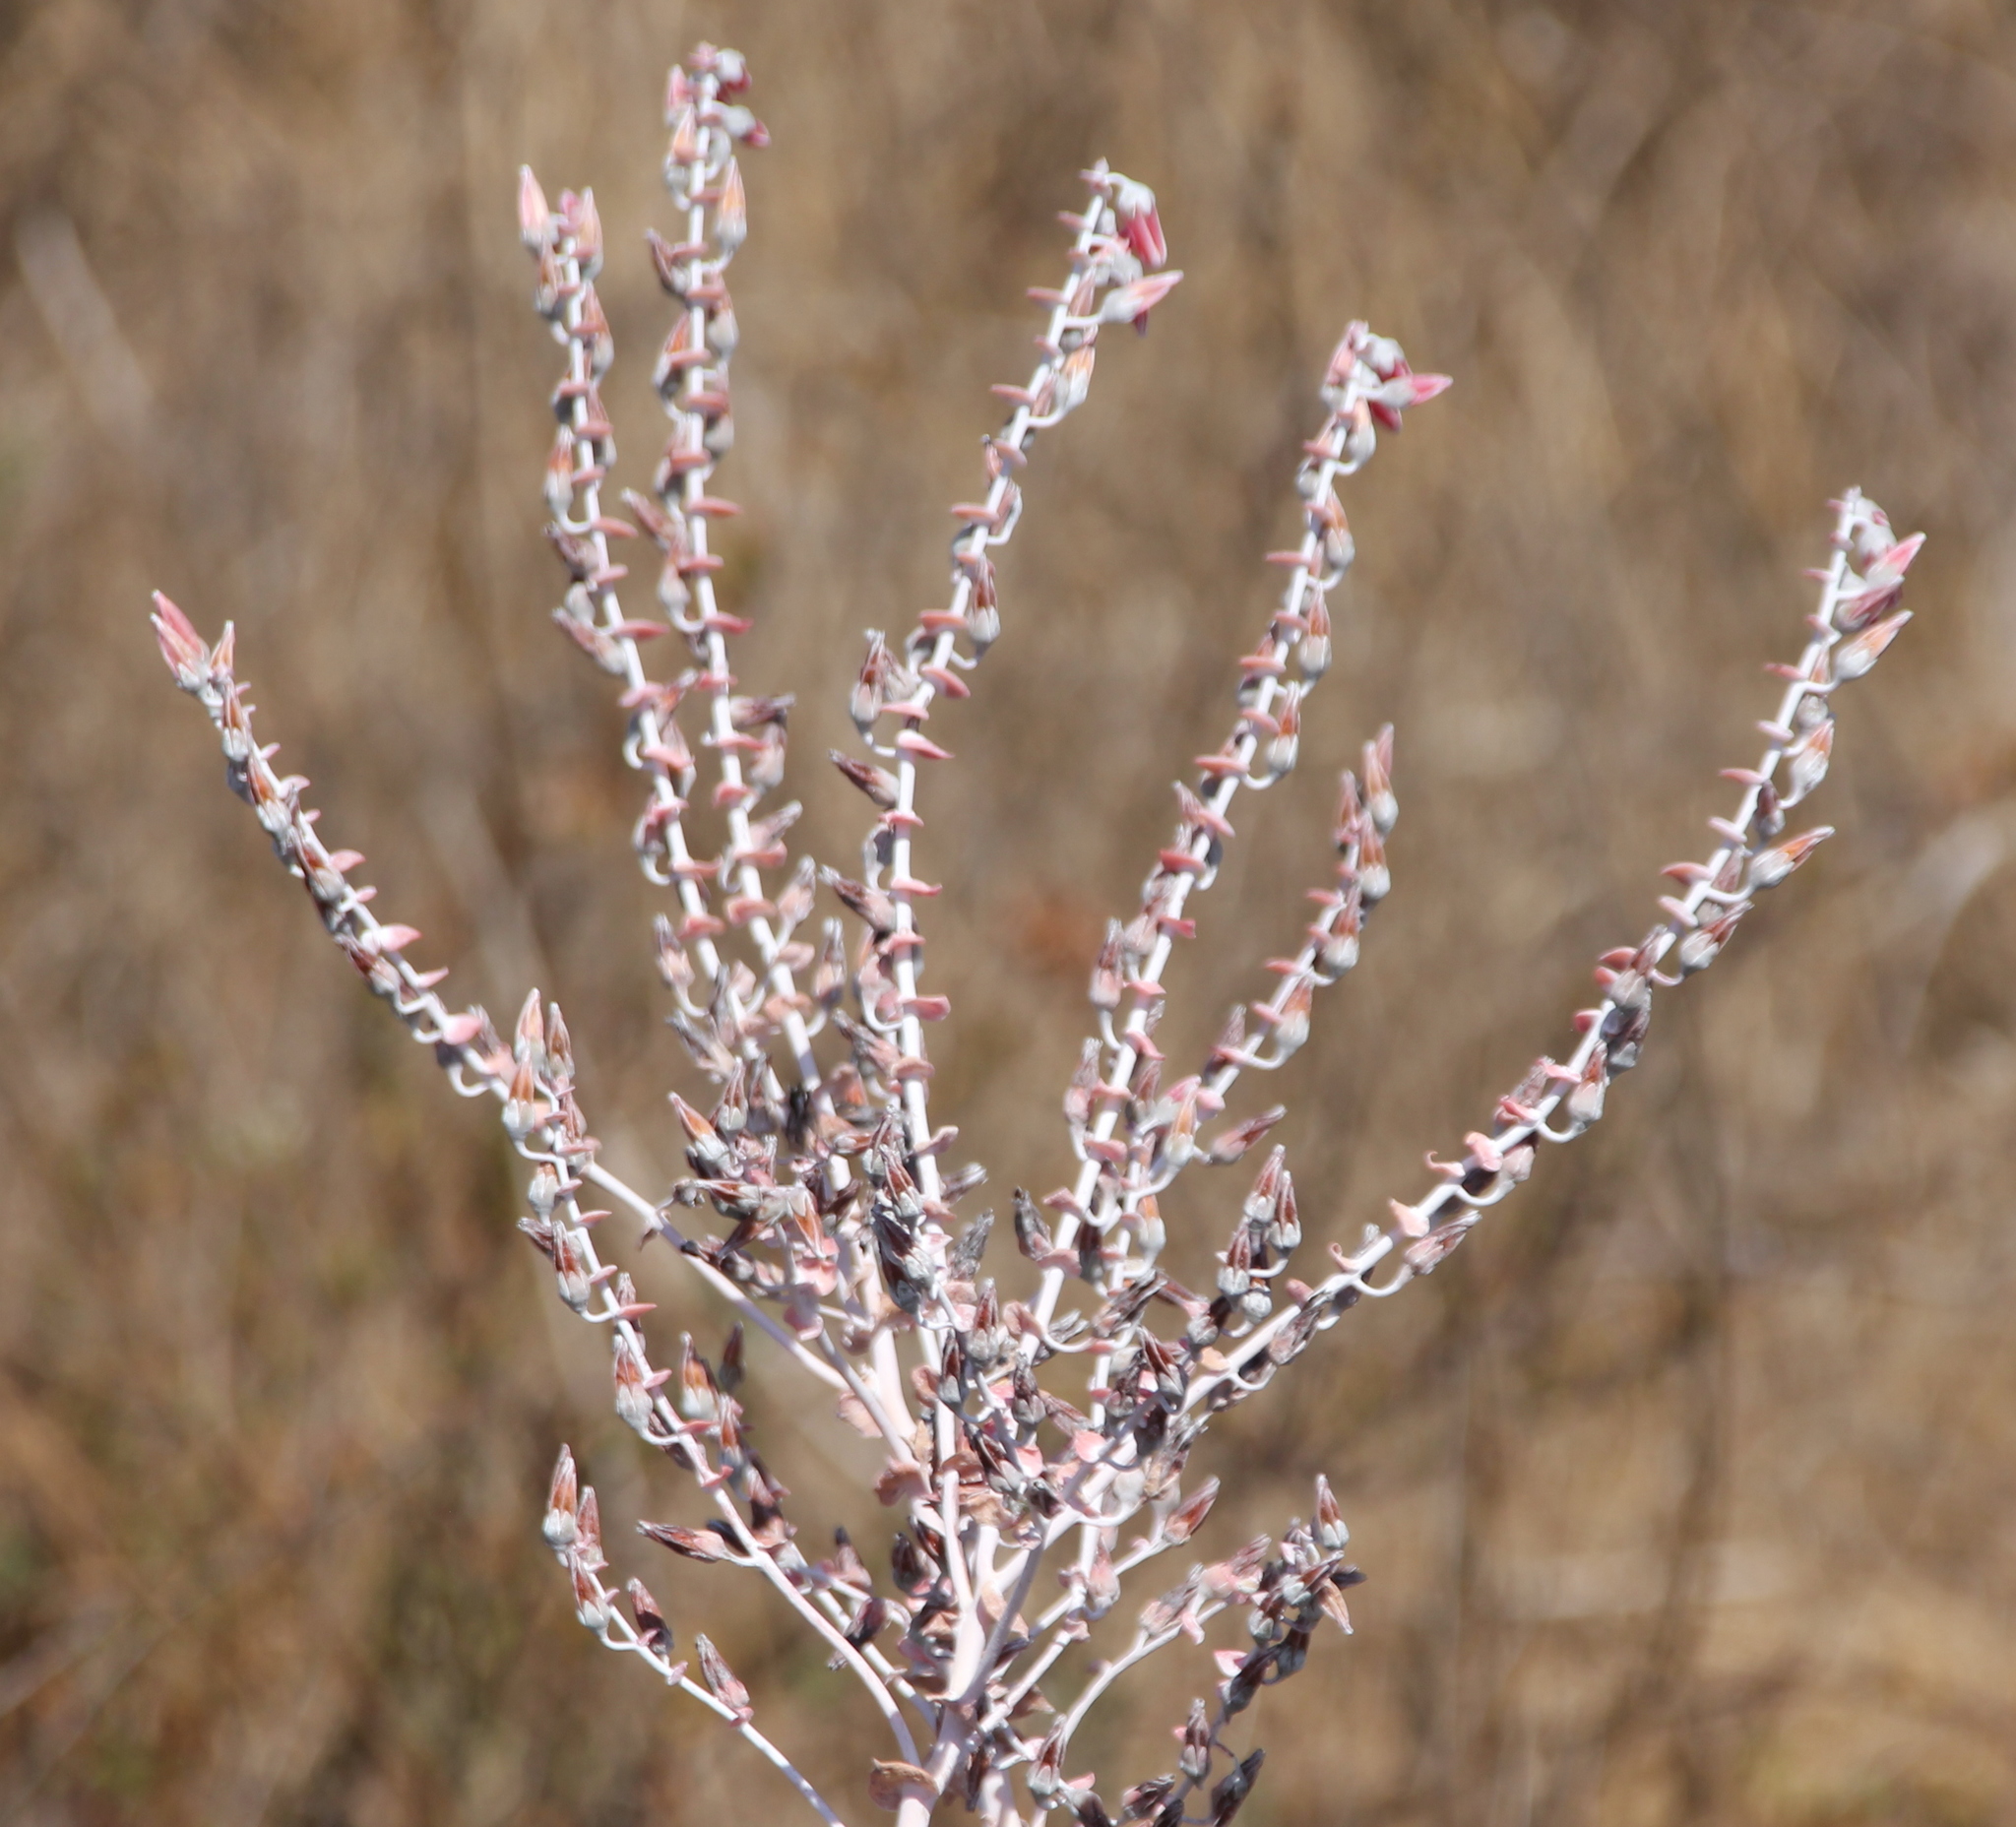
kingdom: Plantae
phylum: Tracheophyta
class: Magnoliopsida
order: Saxifragales
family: Crassulaceae
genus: Dudleya
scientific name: Dudleya pulverulenta
